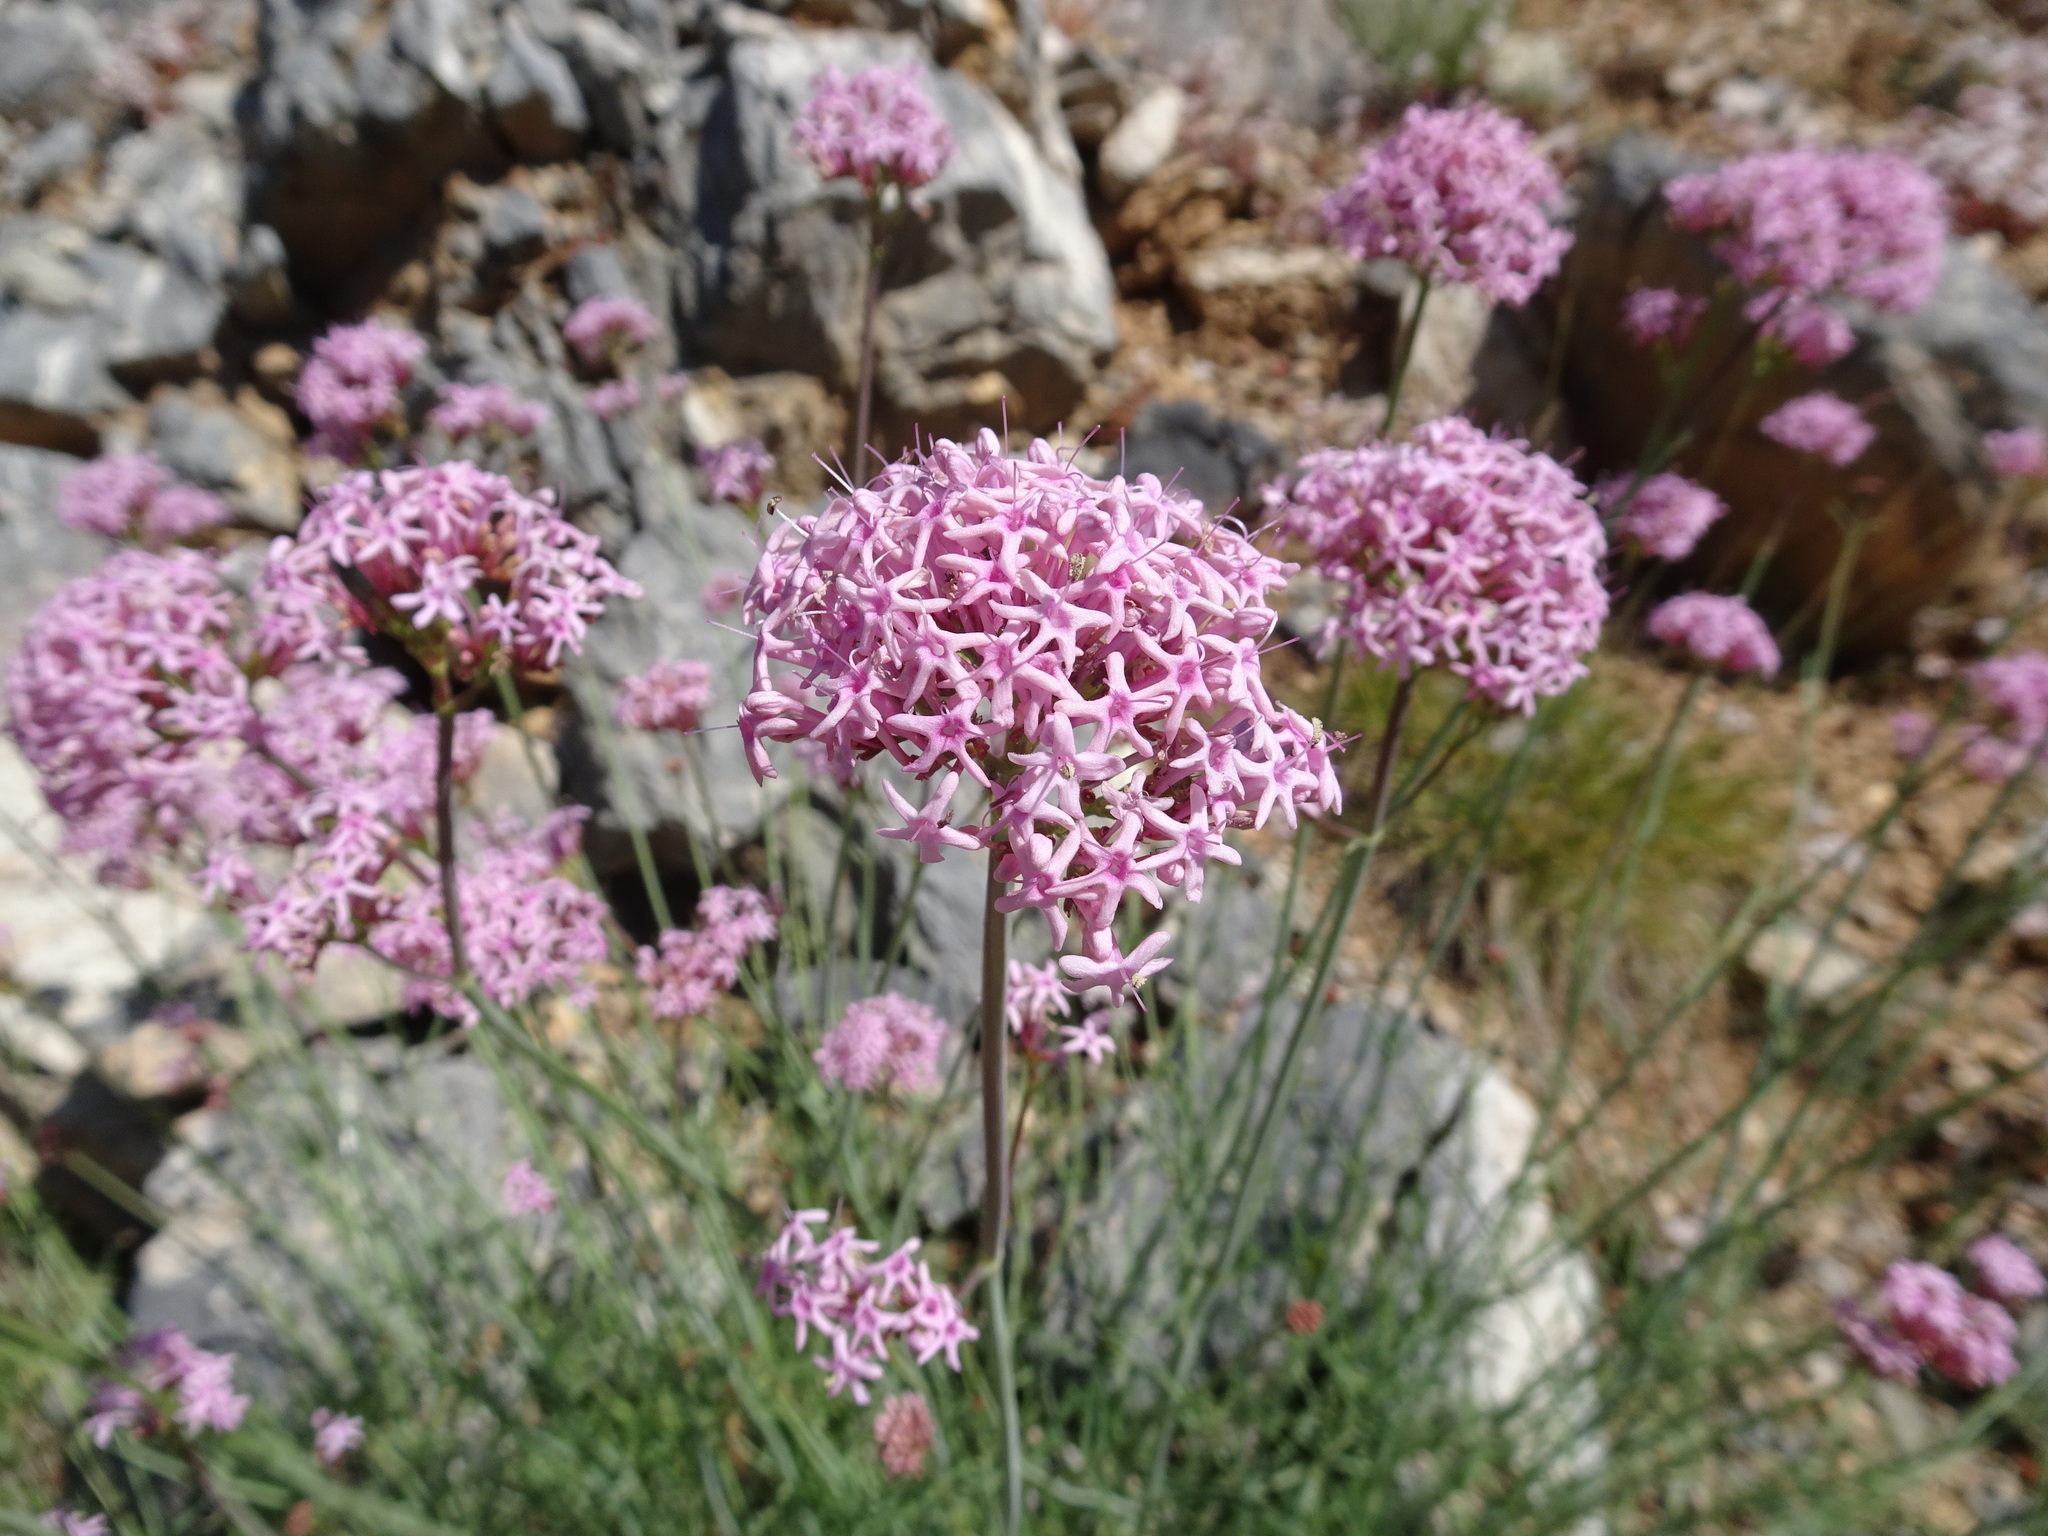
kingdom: Plantae
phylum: Tracheophyta
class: Magnoliopsida
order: Dipsacales
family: Caprifoliaceae
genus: Centranthus
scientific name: Centranthus angustifolius
